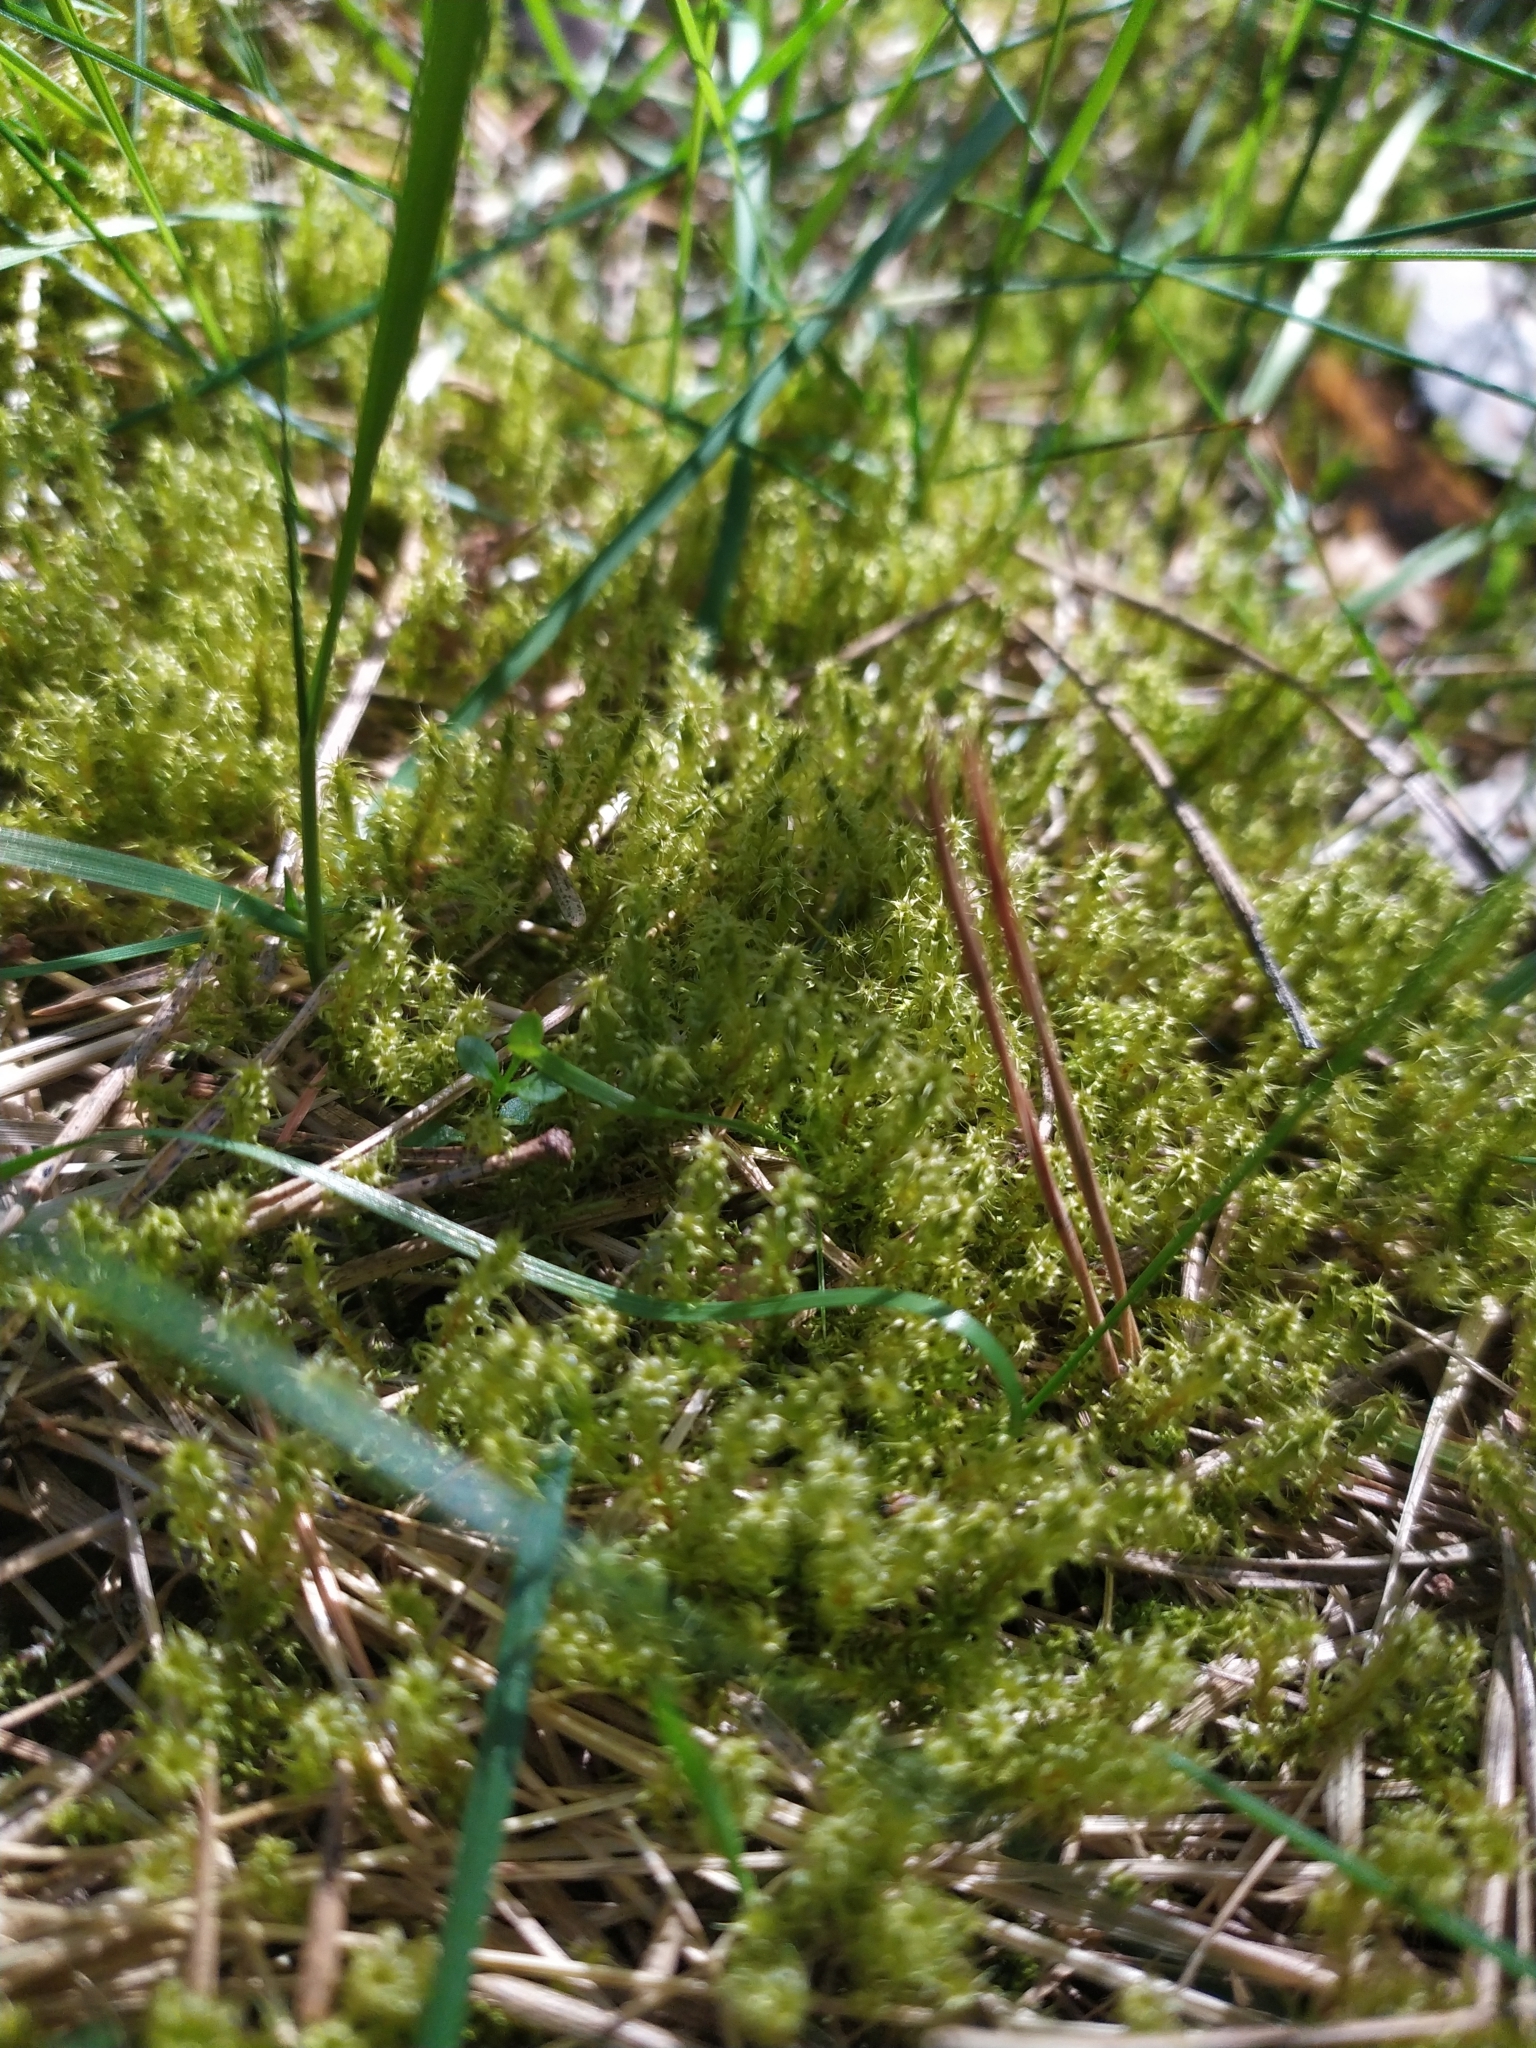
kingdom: Plantae
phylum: Bryophyta
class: Bryopsida
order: Hypnales
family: Hylocomiaceae
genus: Rhytidiadelphus
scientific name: Rhytidiadelphus squarrosus
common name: Springy turf-moss
